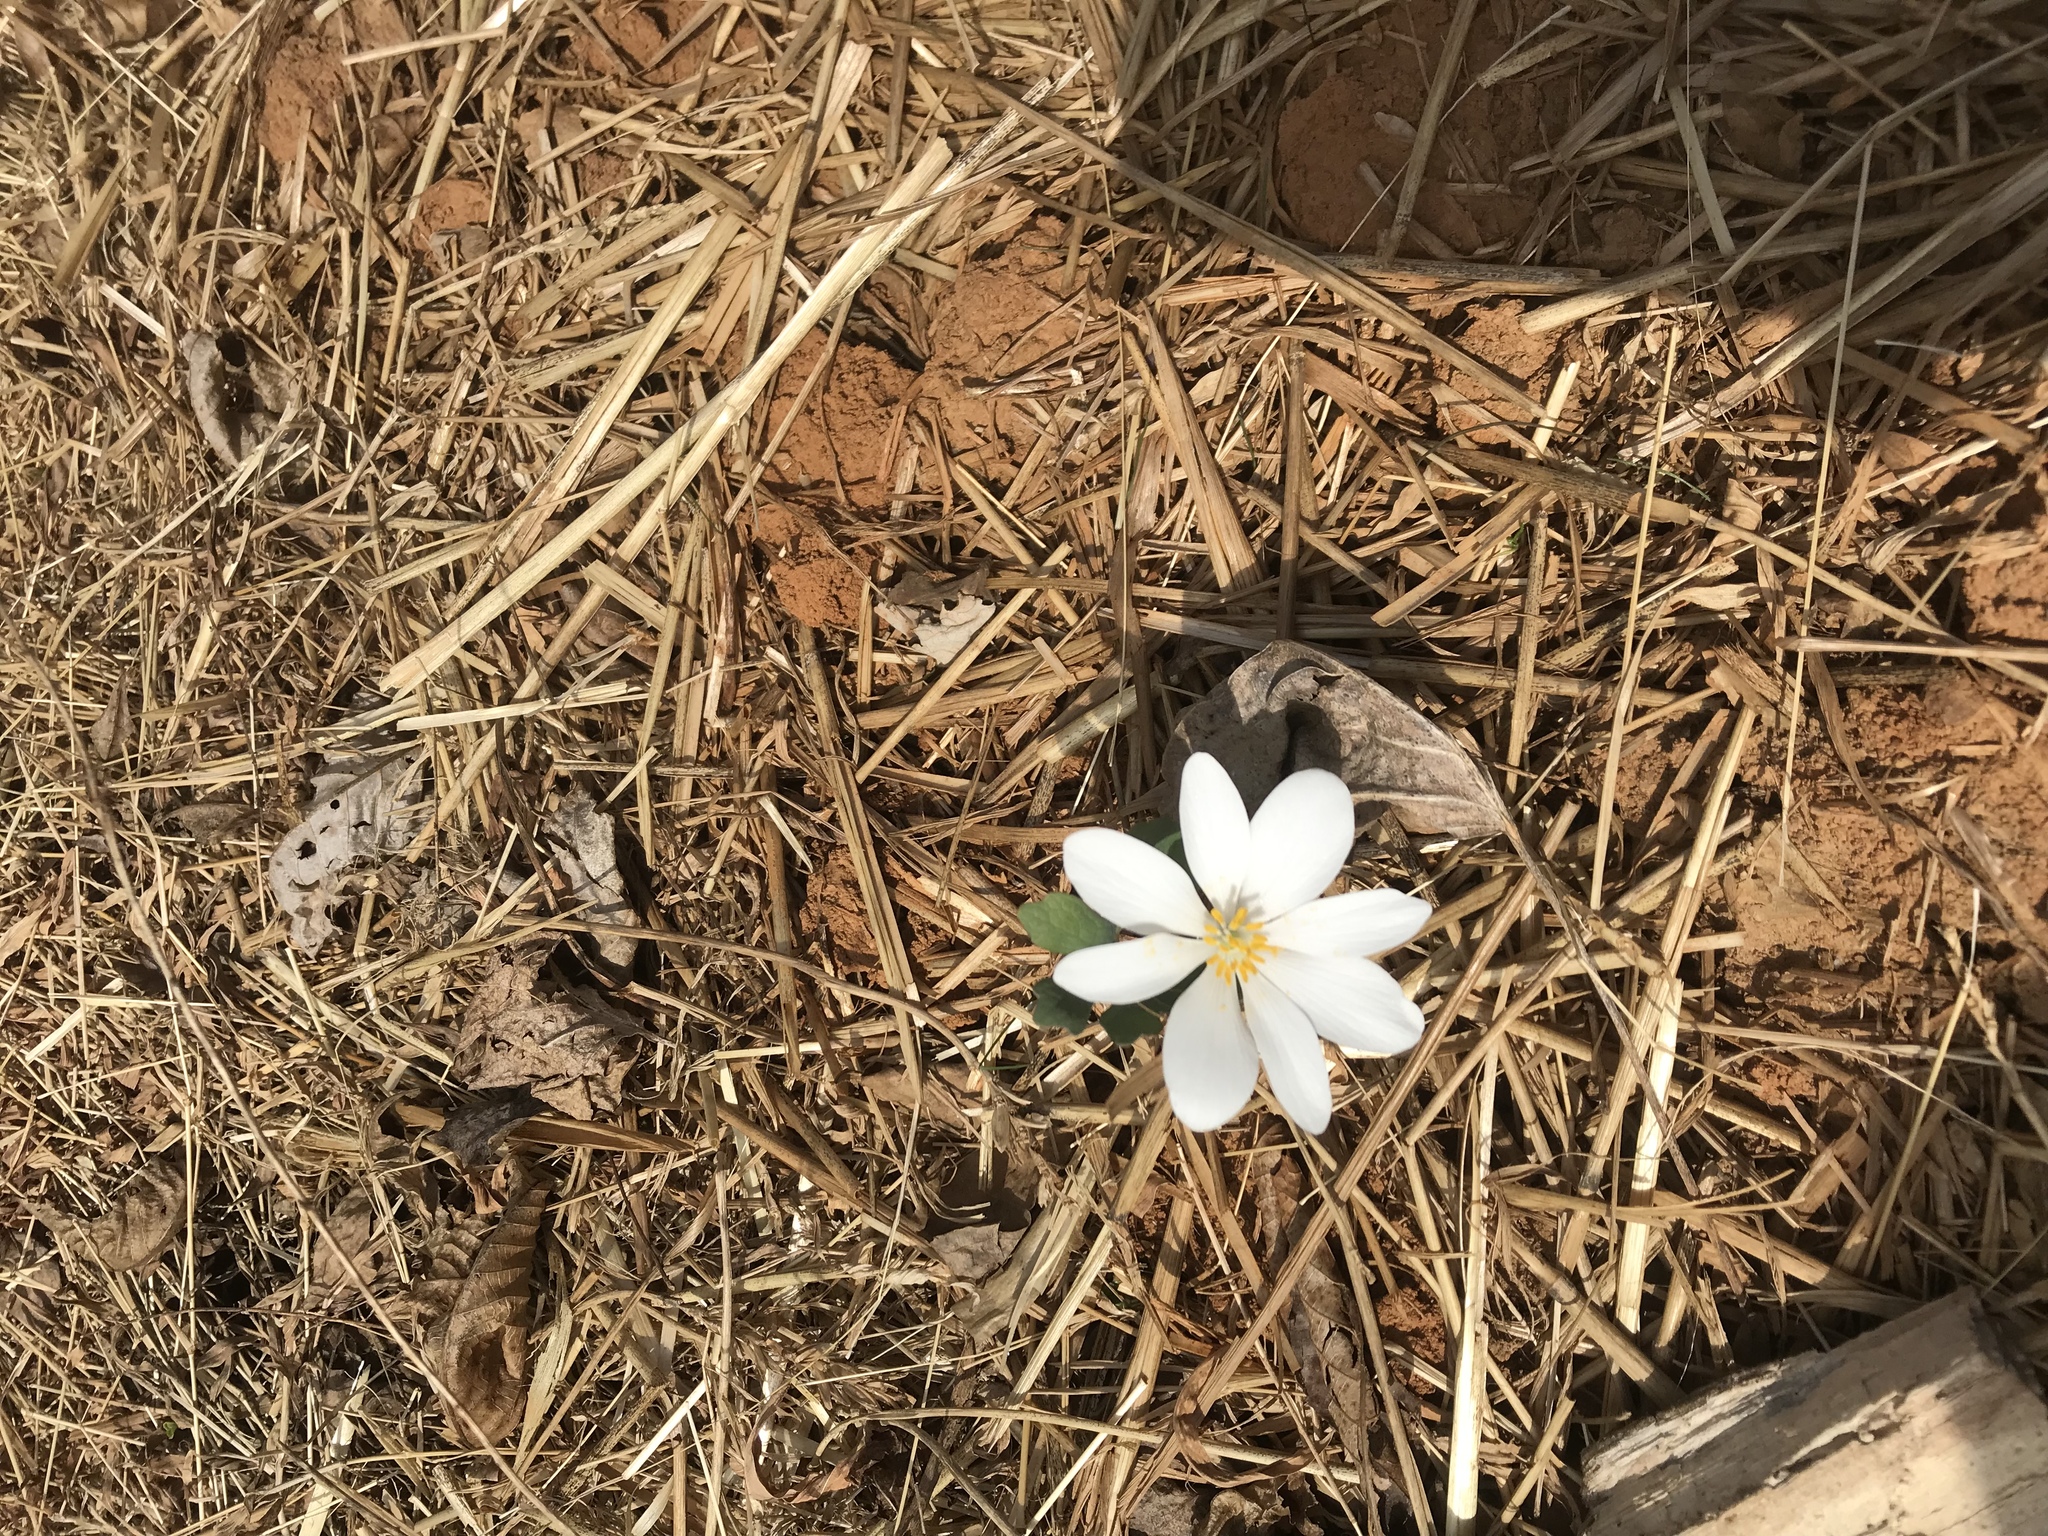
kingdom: Plantae
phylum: Tracheophyta
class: Magnoliopsida
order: Ranunculales
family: Papaveraceae
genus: Sanguinaria
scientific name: Sanguinaria canadensis
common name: Bloodroot
